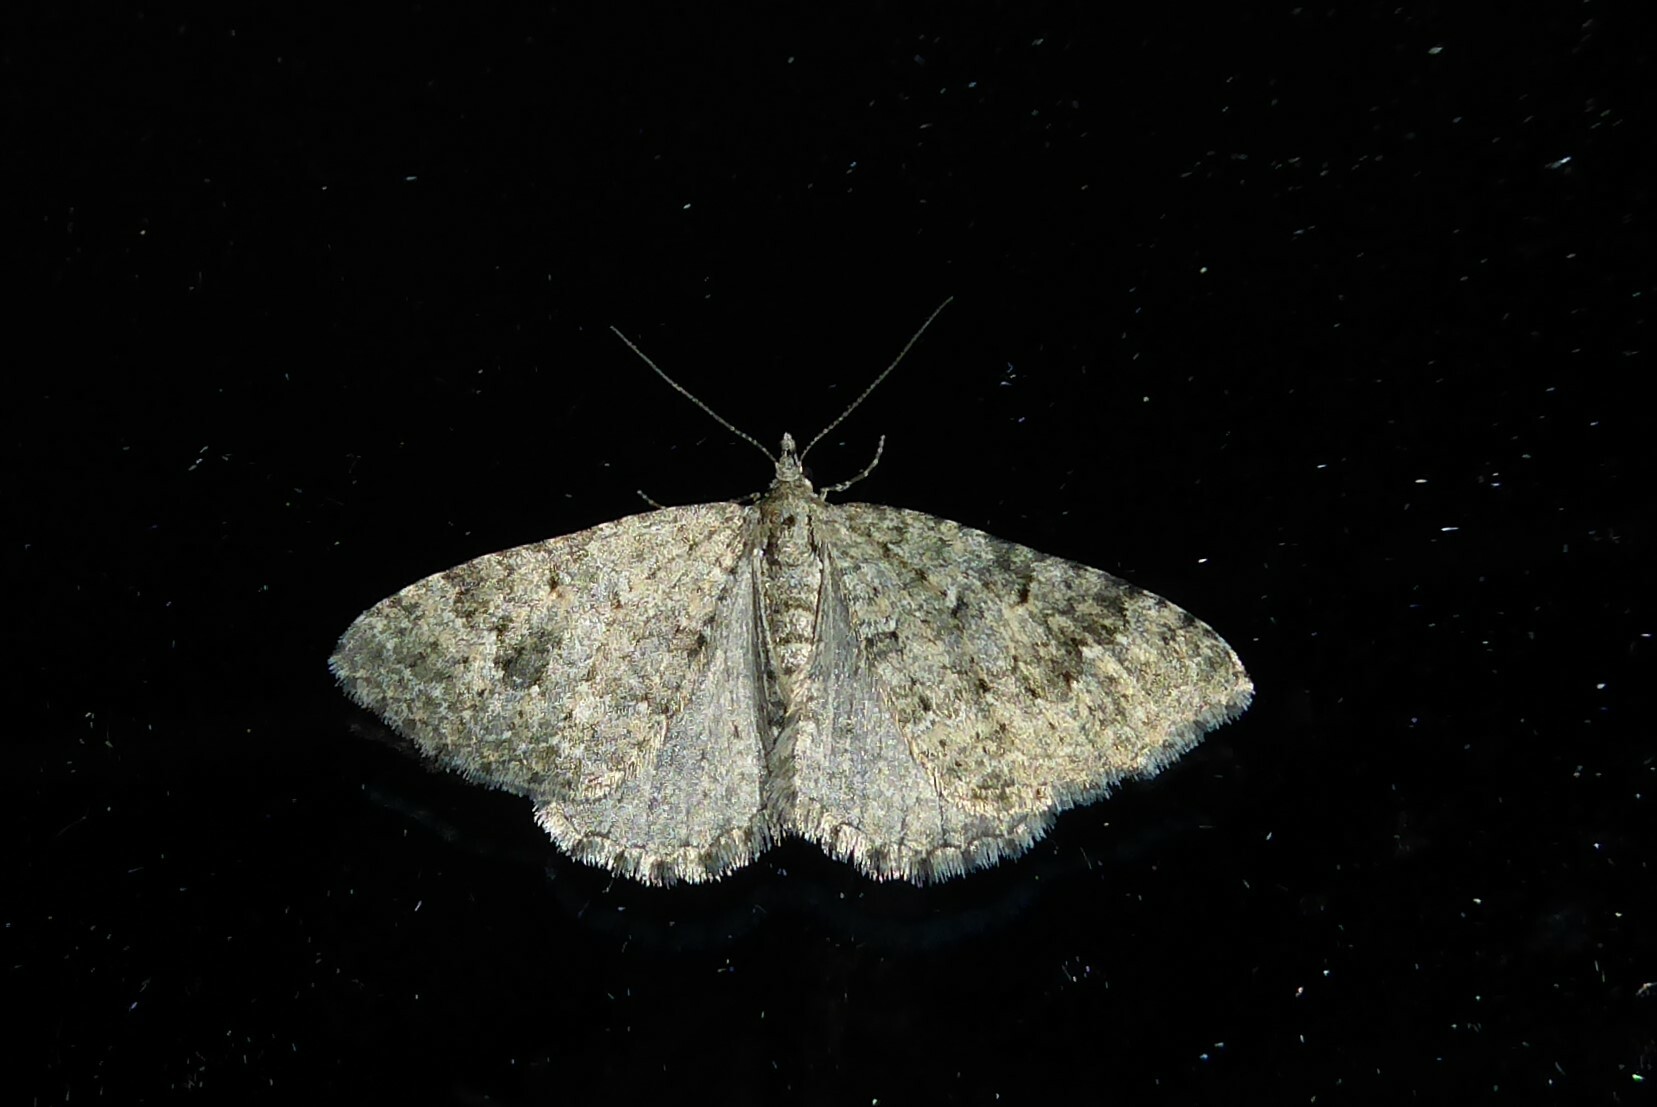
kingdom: Animalia
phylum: Arthropoda
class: Insecta
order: Lepidoptera
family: Geometridae
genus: Helastia
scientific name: Helastia corcularia
